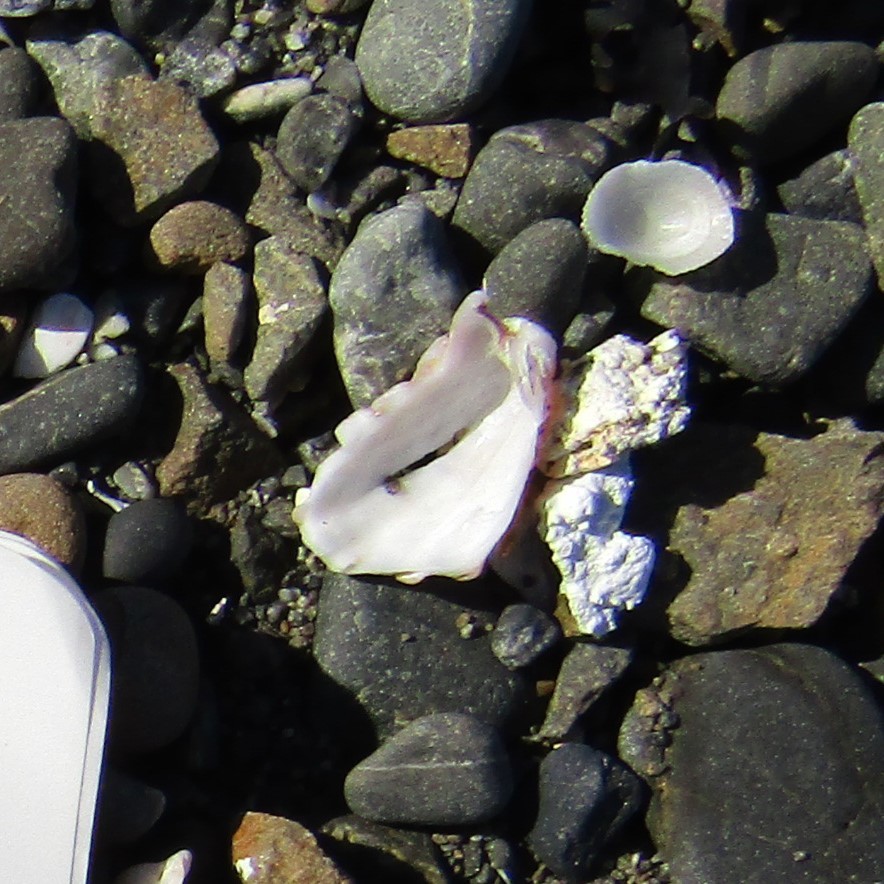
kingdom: Animalia
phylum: Mollusca
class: Bivalvia
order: Carditida
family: Carditidae
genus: Cardita
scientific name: Cardita distorta
